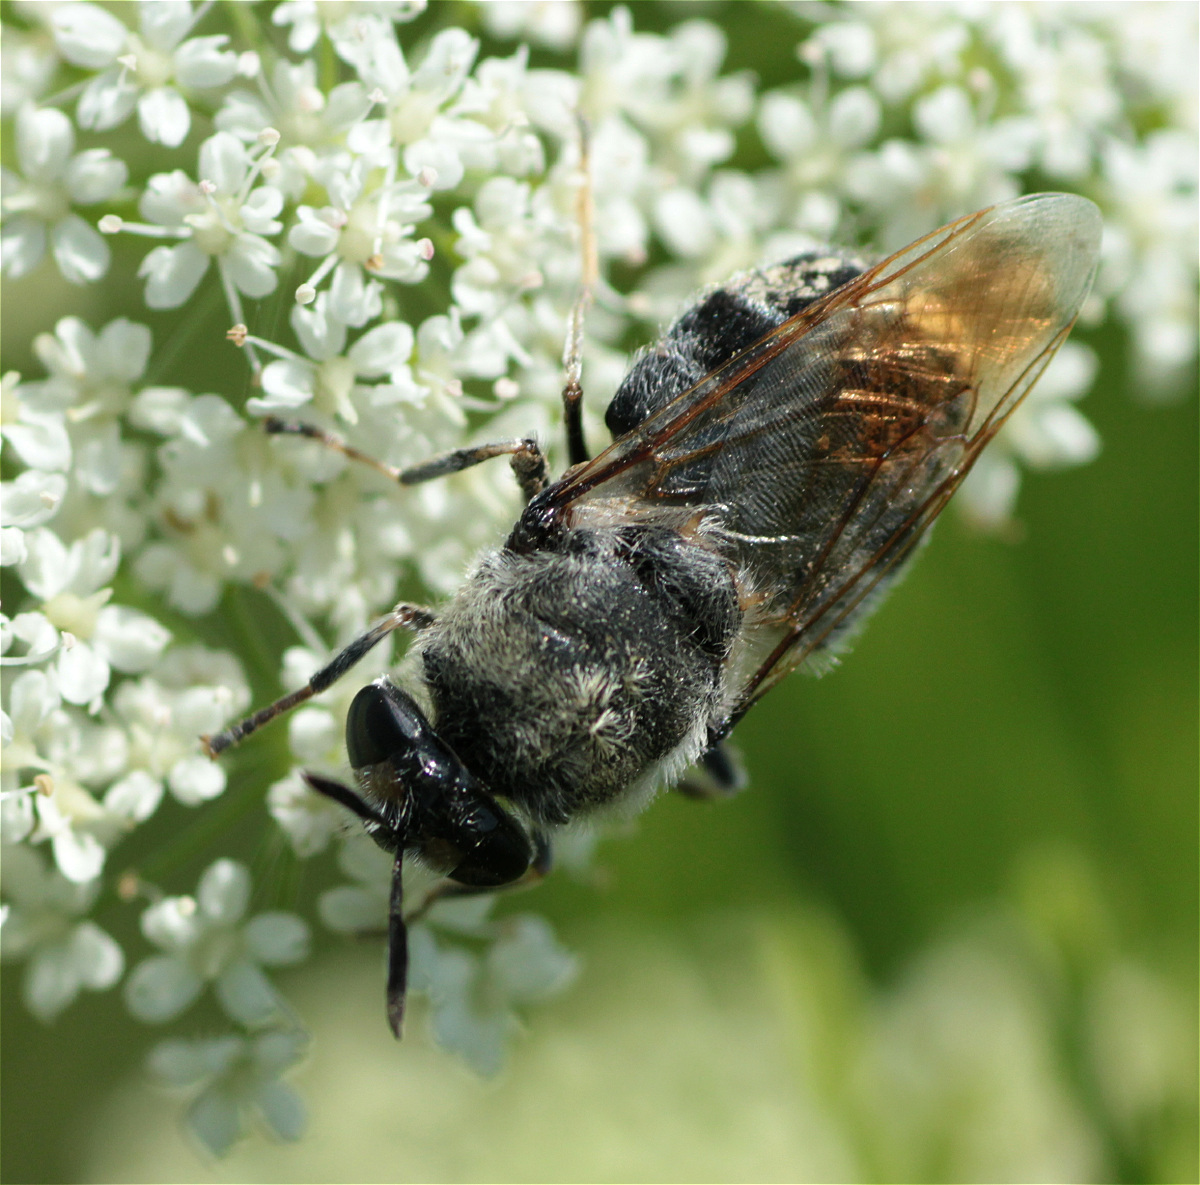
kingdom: Animalia
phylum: Arthropoda
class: Insecta
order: Diptera
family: Stratiomyidae
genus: Stratiomys
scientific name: Stratiomys longicornis
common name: Long-horned general
